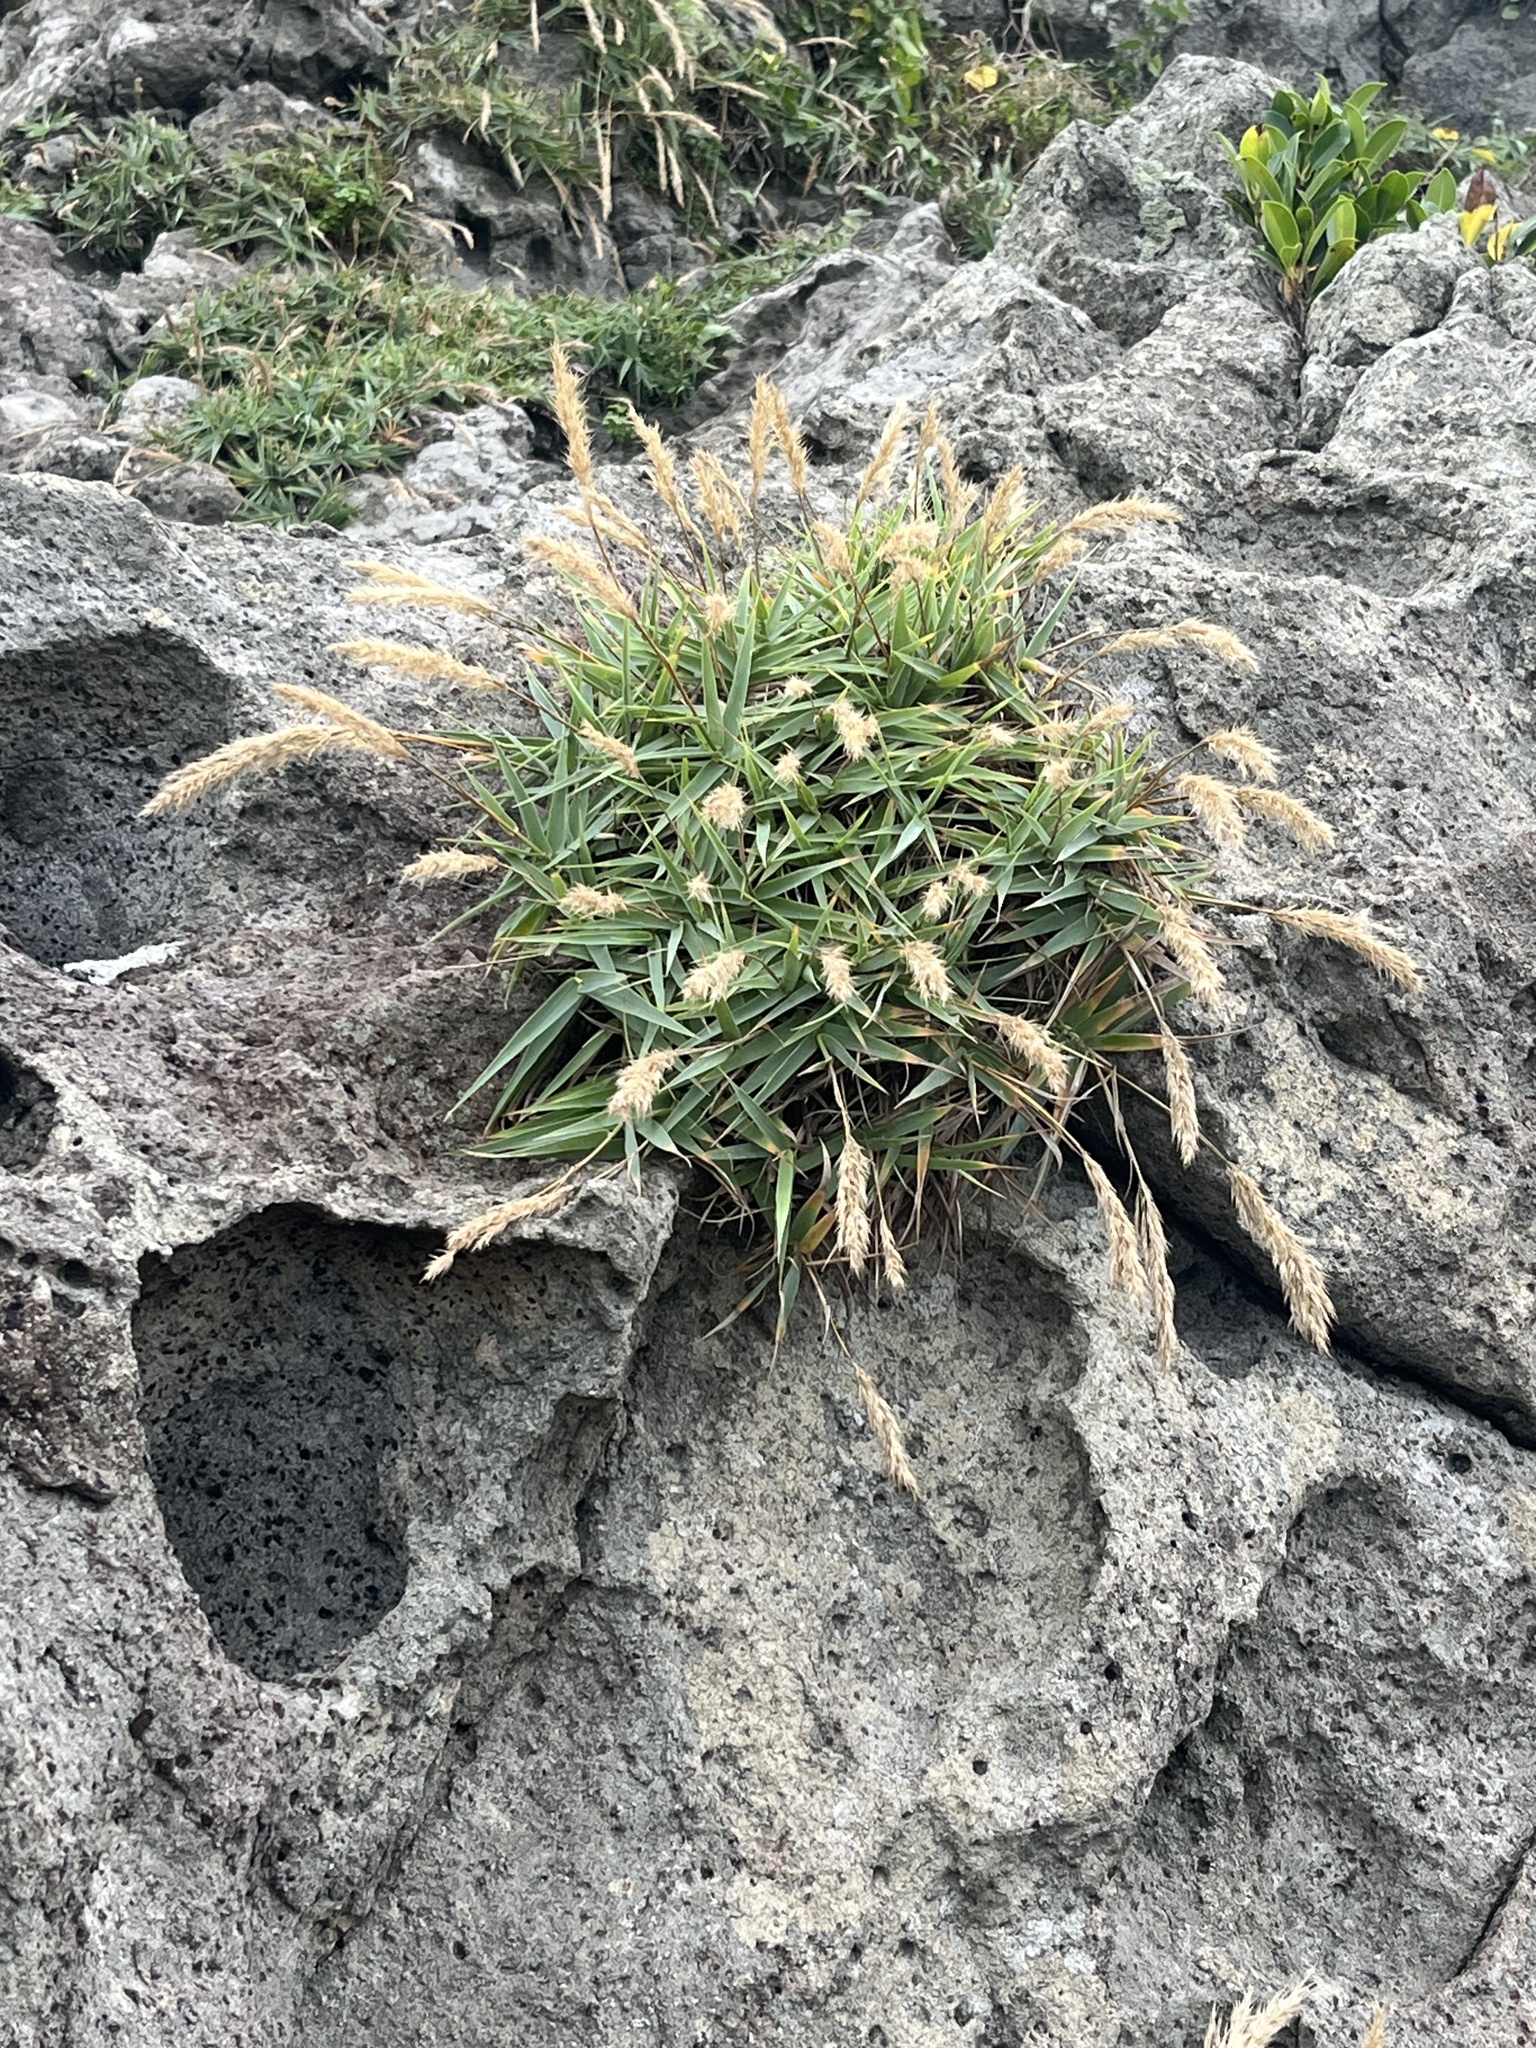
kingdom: Plantae
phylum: Tracheophyta
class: Liliopsida
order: Poales
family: Poaceae
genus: Arundo
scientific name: Arundo formosana
